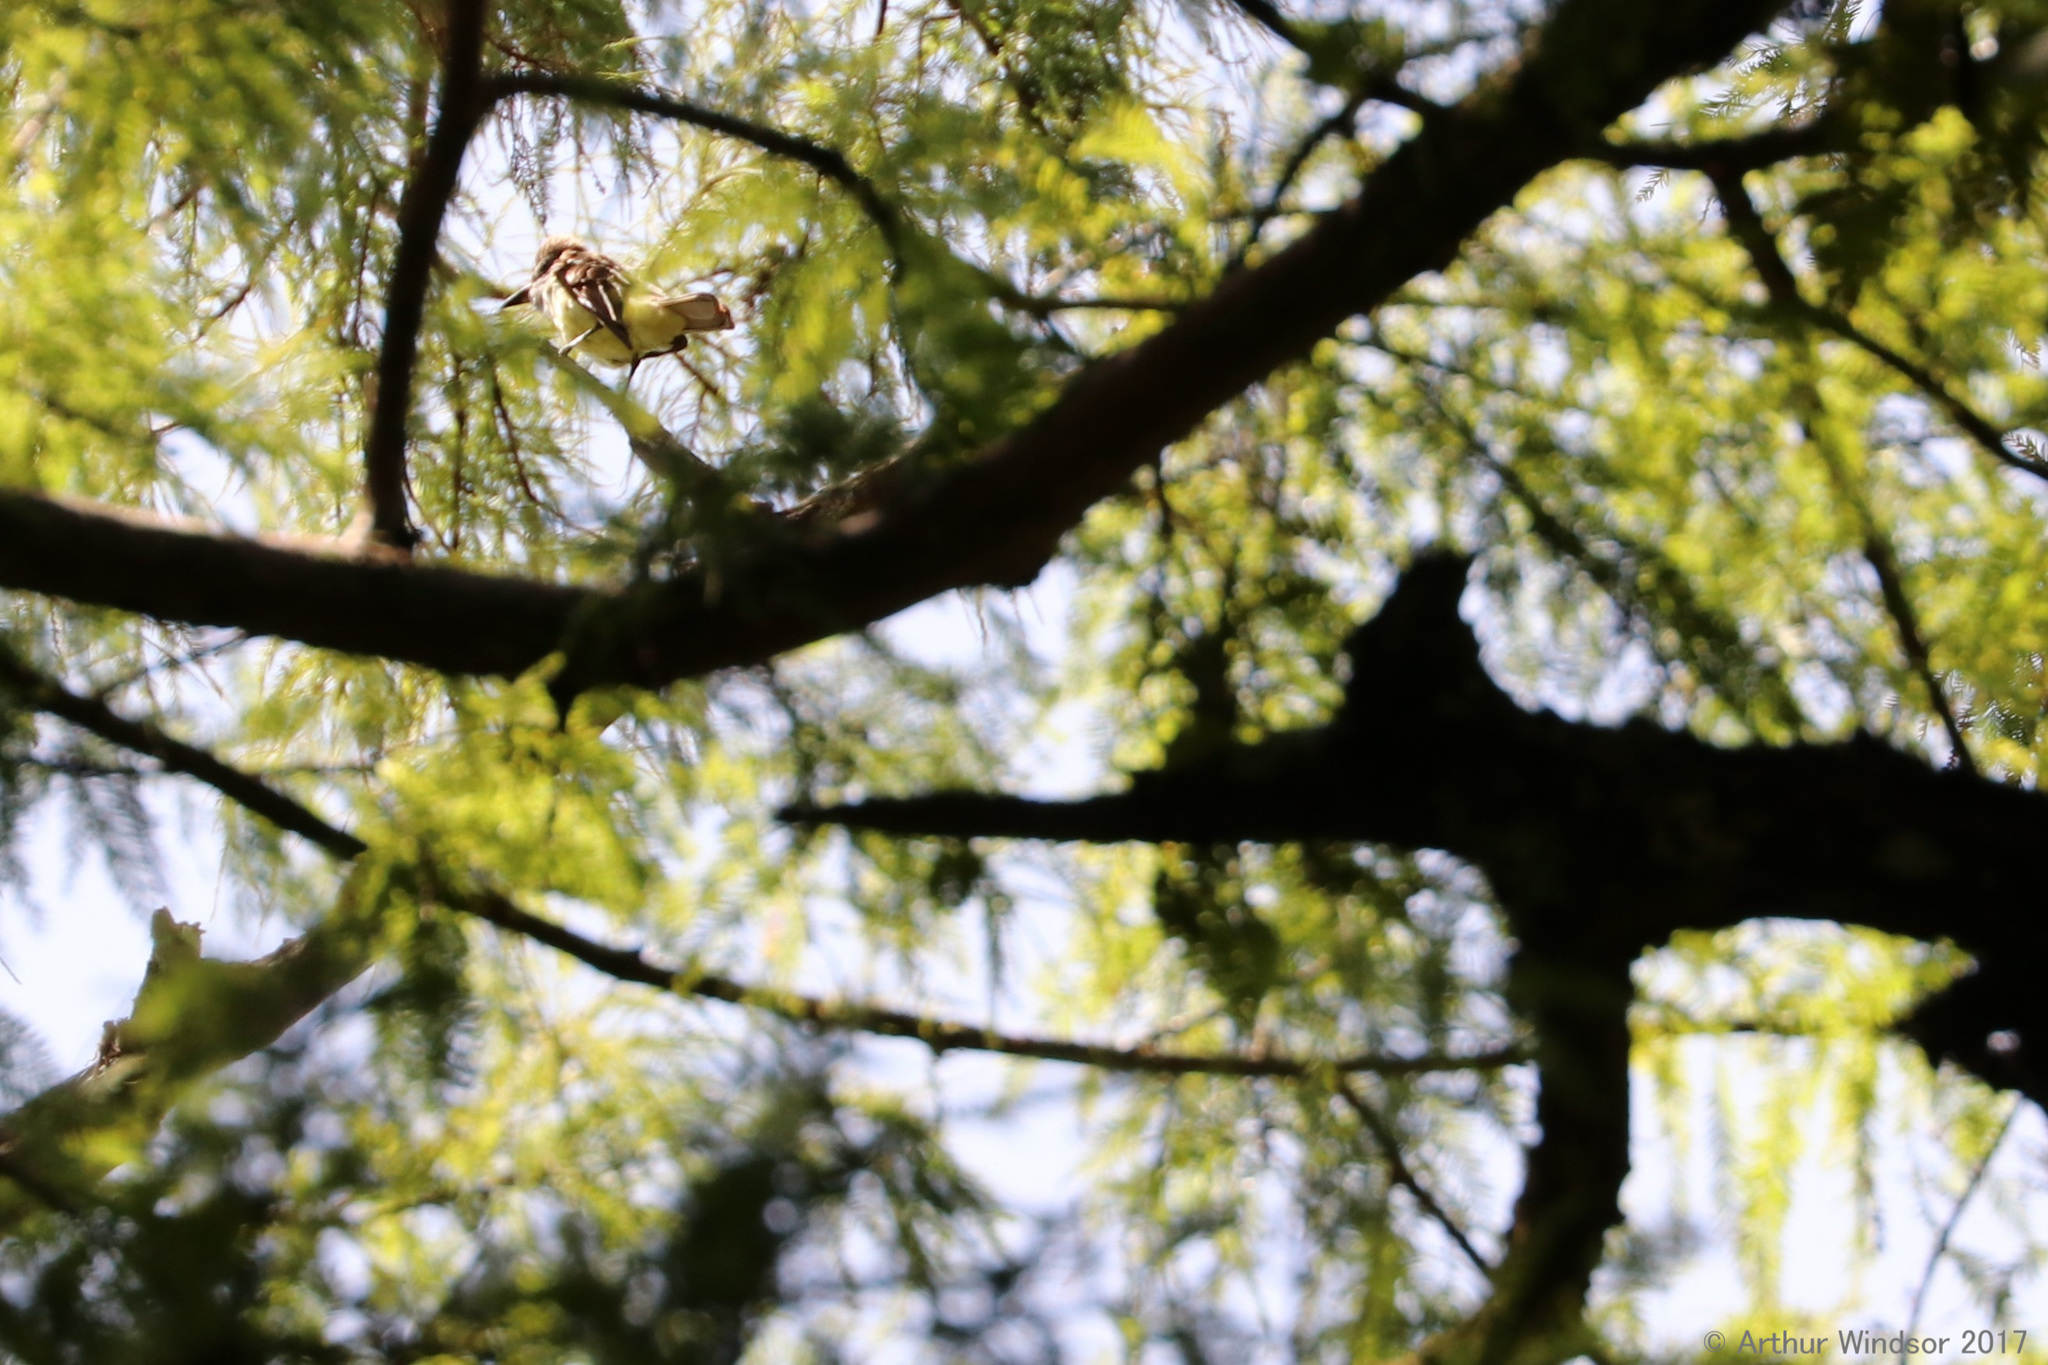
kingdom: Animalia
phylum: Chordata
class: Aves
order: Passeriformes
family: Tyrannidae
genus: Myiarchus
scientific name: Myiarchus crinitus
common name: Great crested flycatcher
